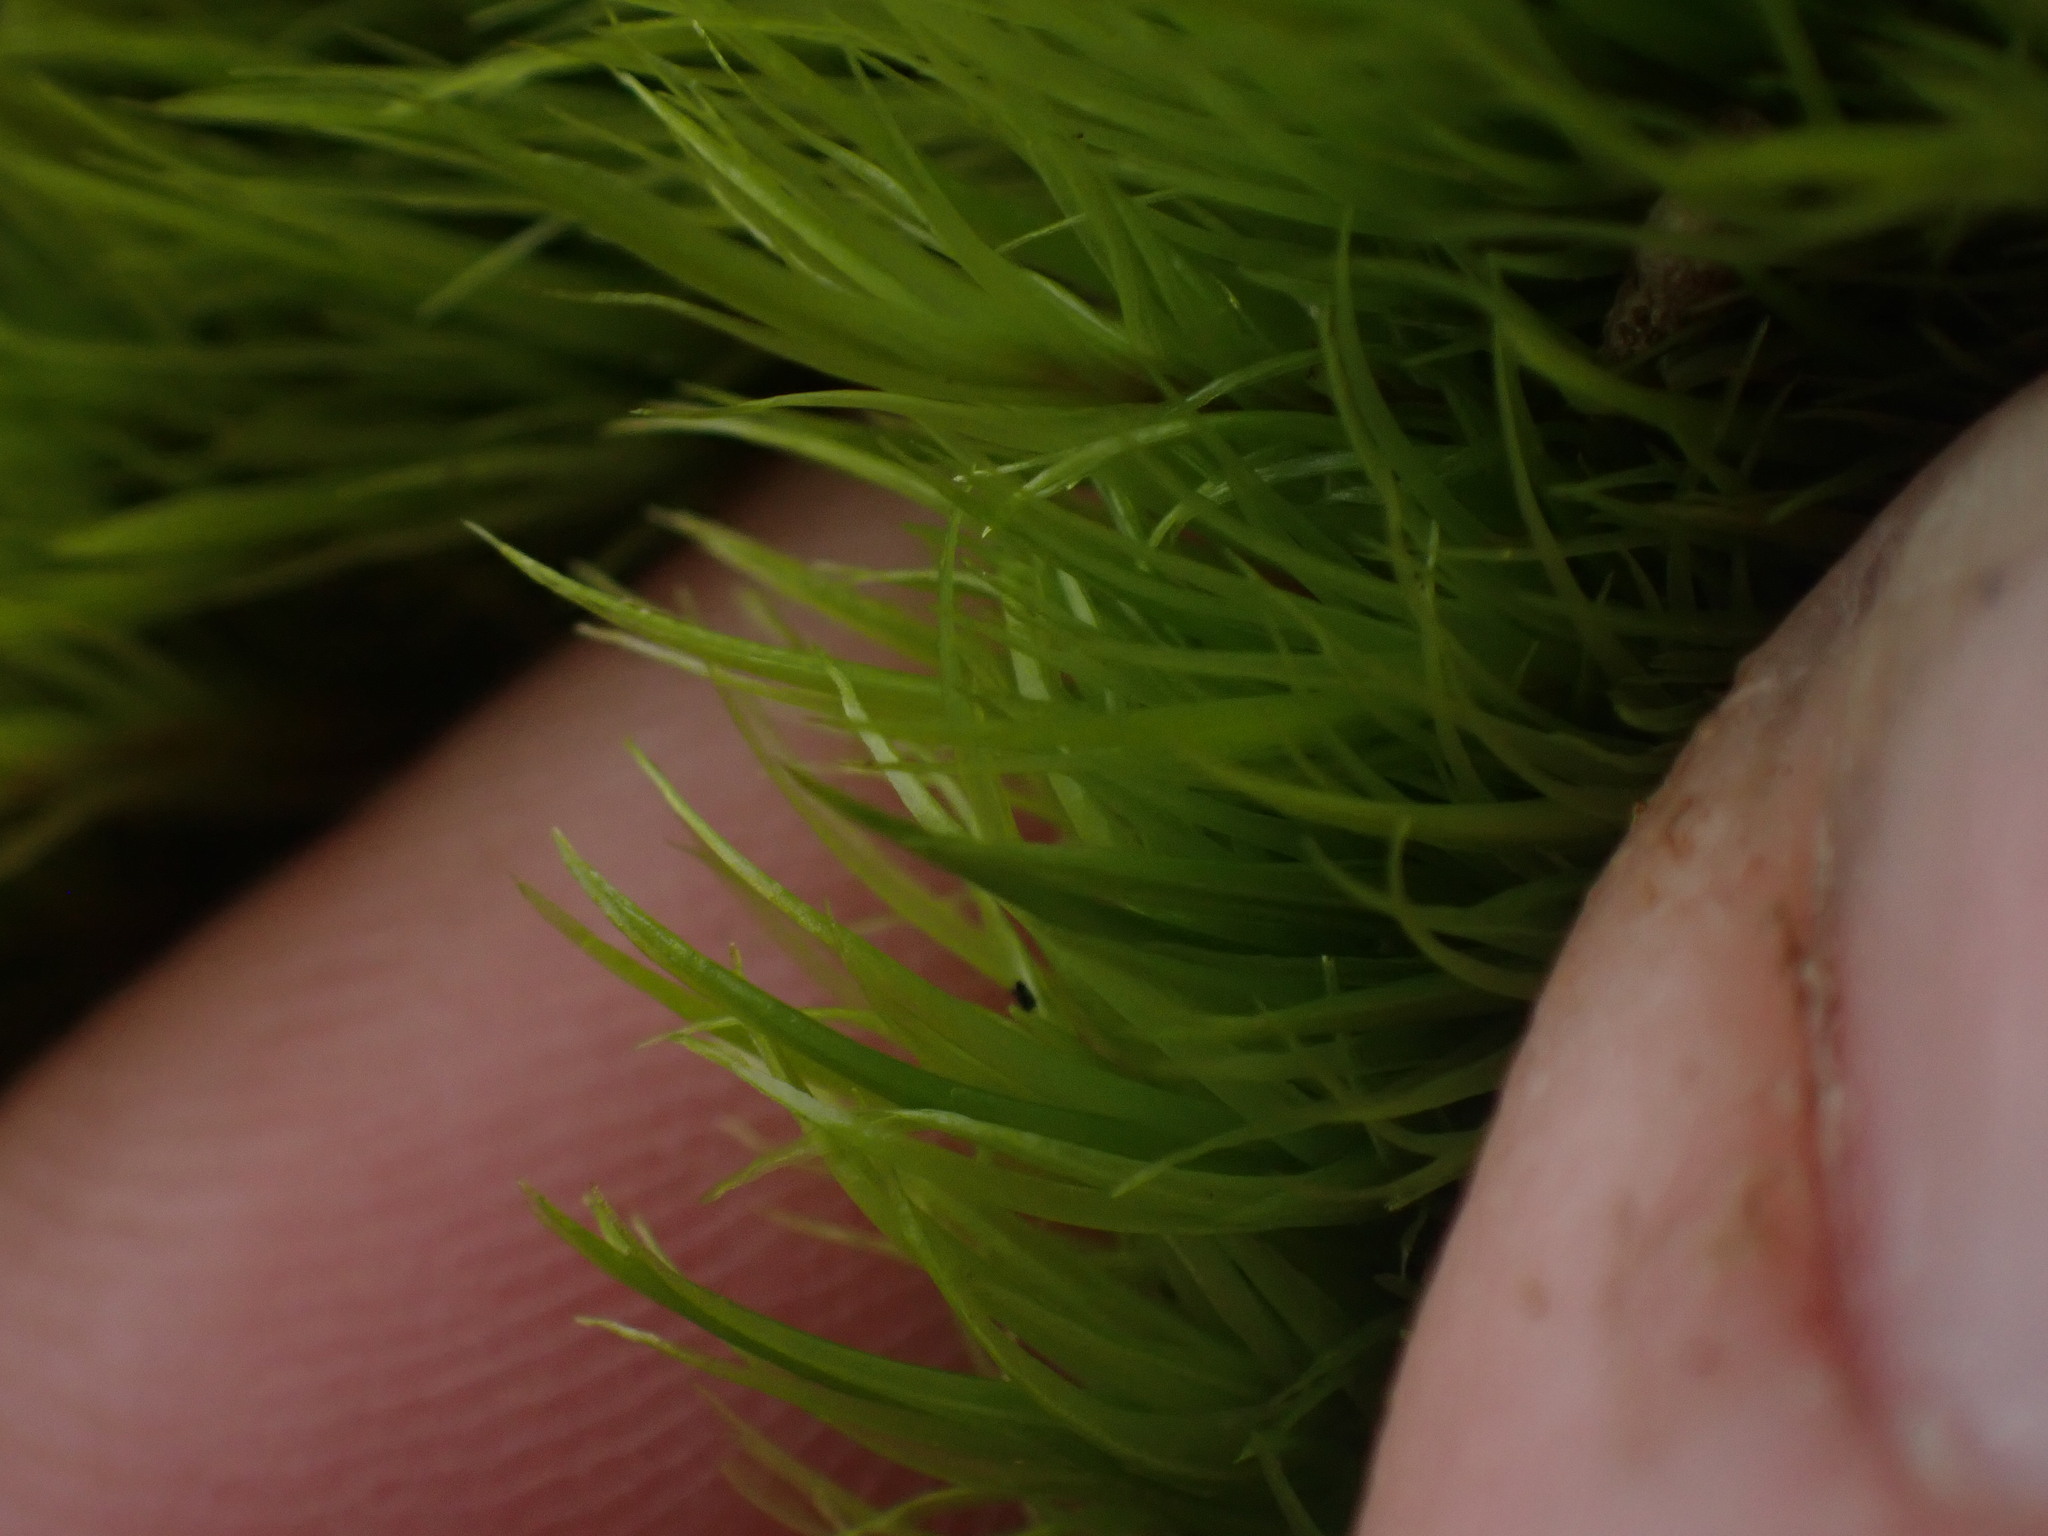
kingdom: Plantae
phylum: Bryophyta
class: Bryopsida
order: Dicranales
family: Dicranaceae
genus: Orthodicranum
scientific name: Orthodicranum tauricum
